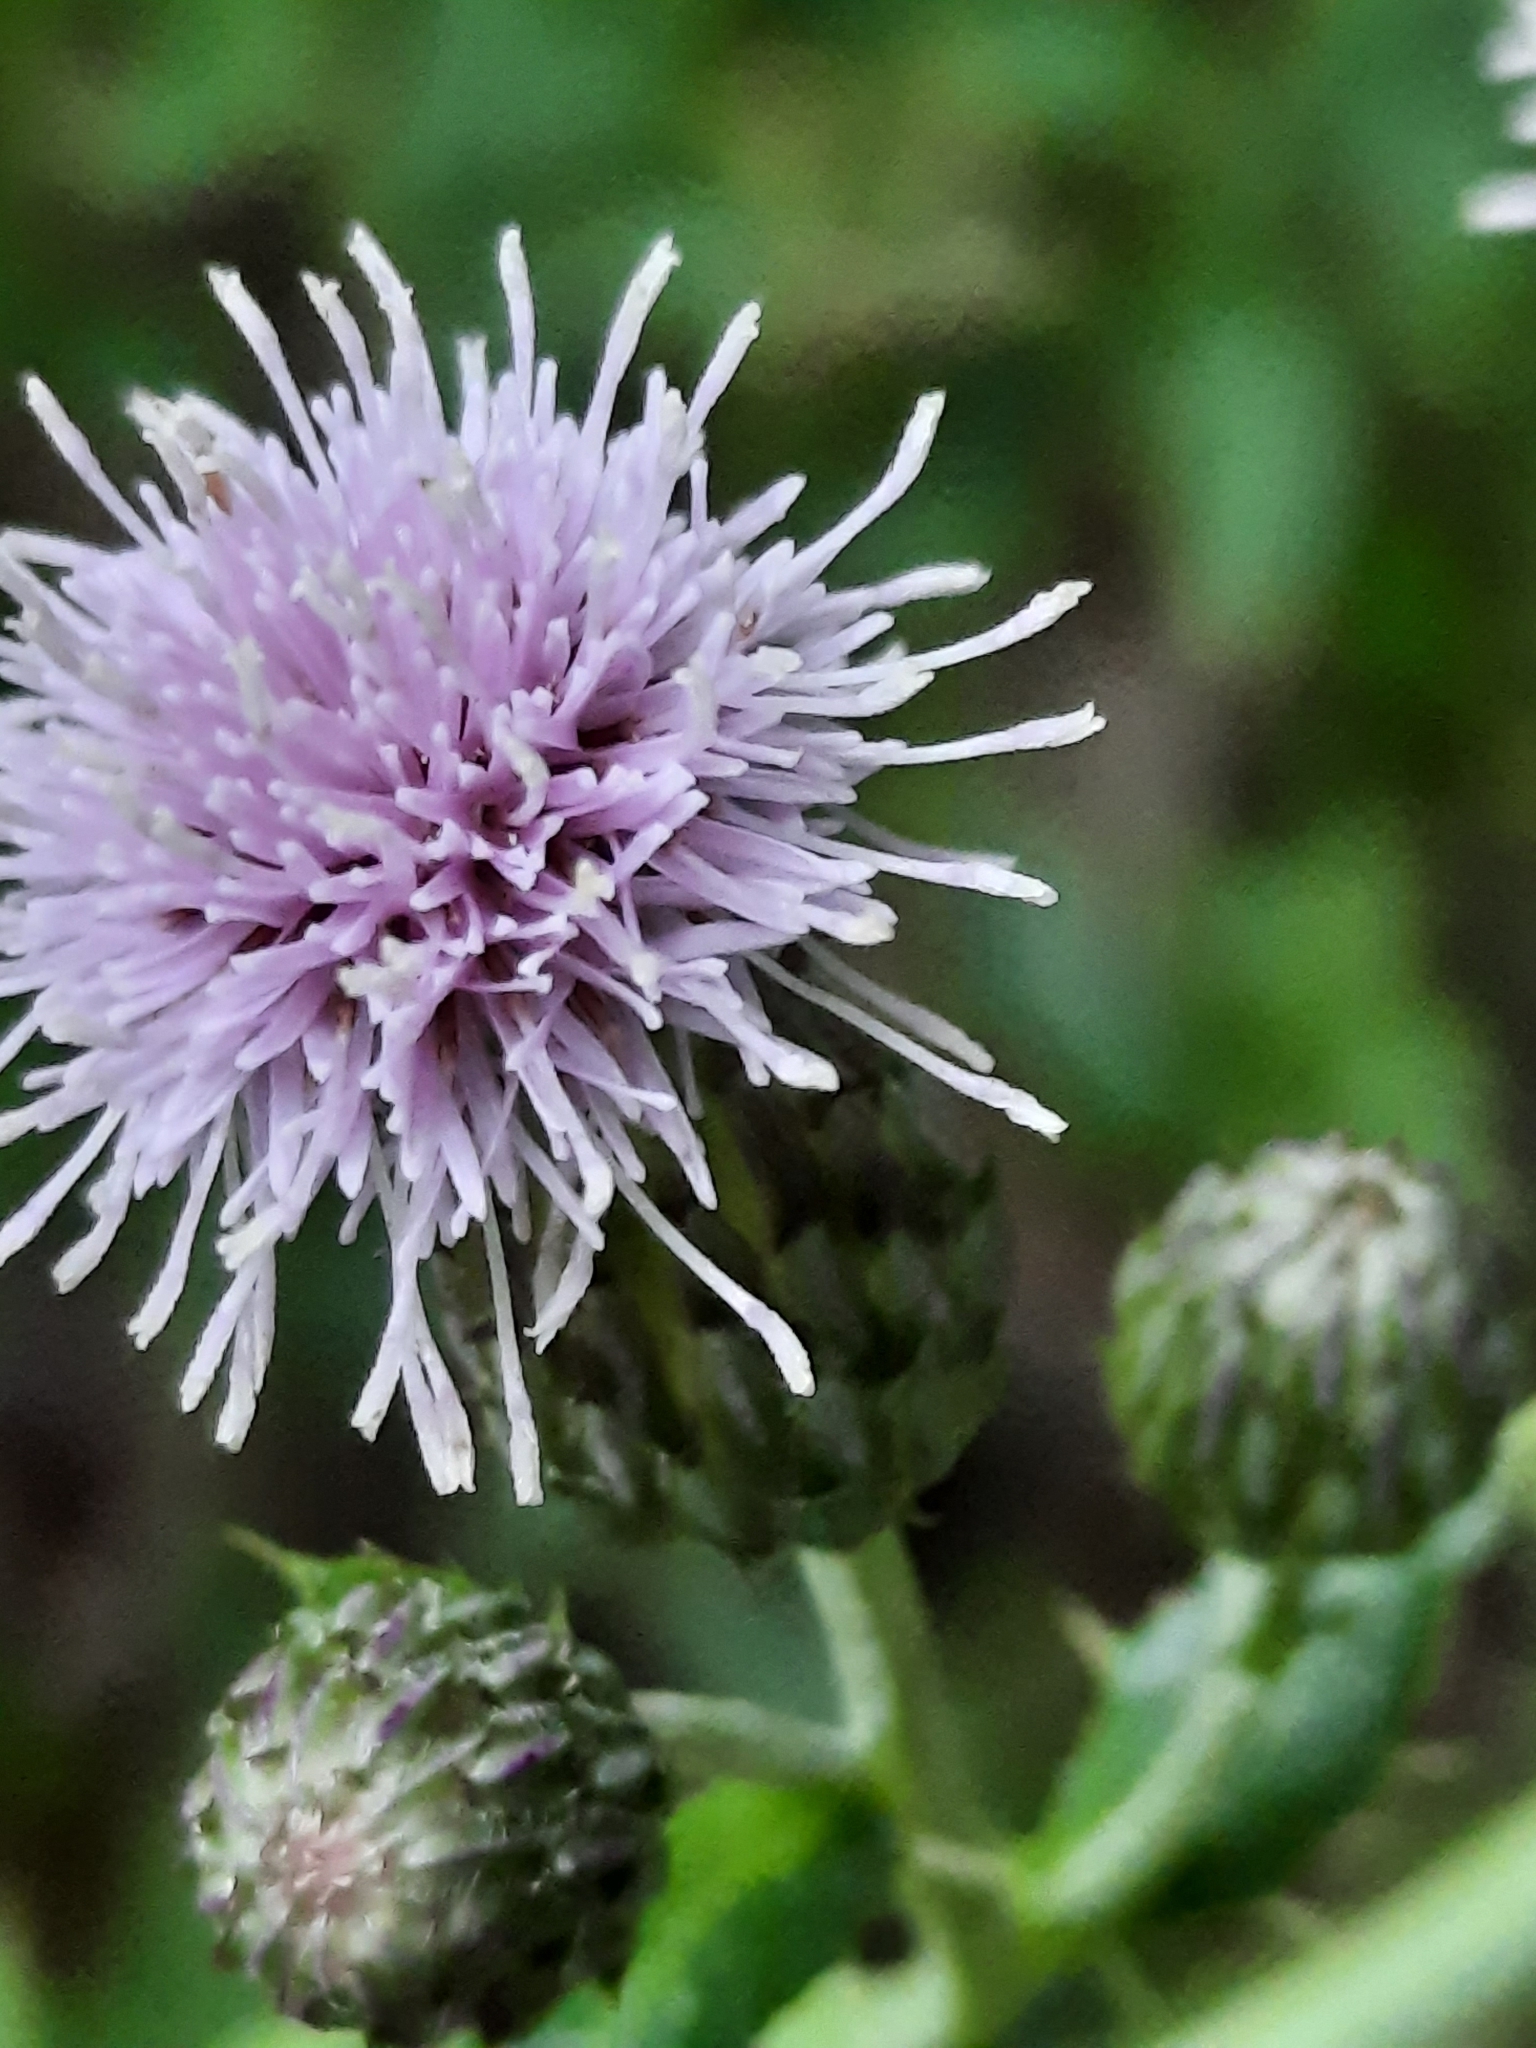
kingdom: Plantae
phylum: Tracheophyta
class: Magnoliopsida
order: Asterales
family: Asteraceae
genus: Cirsium
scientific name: Cirsium arvense
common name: Creeping thistle
